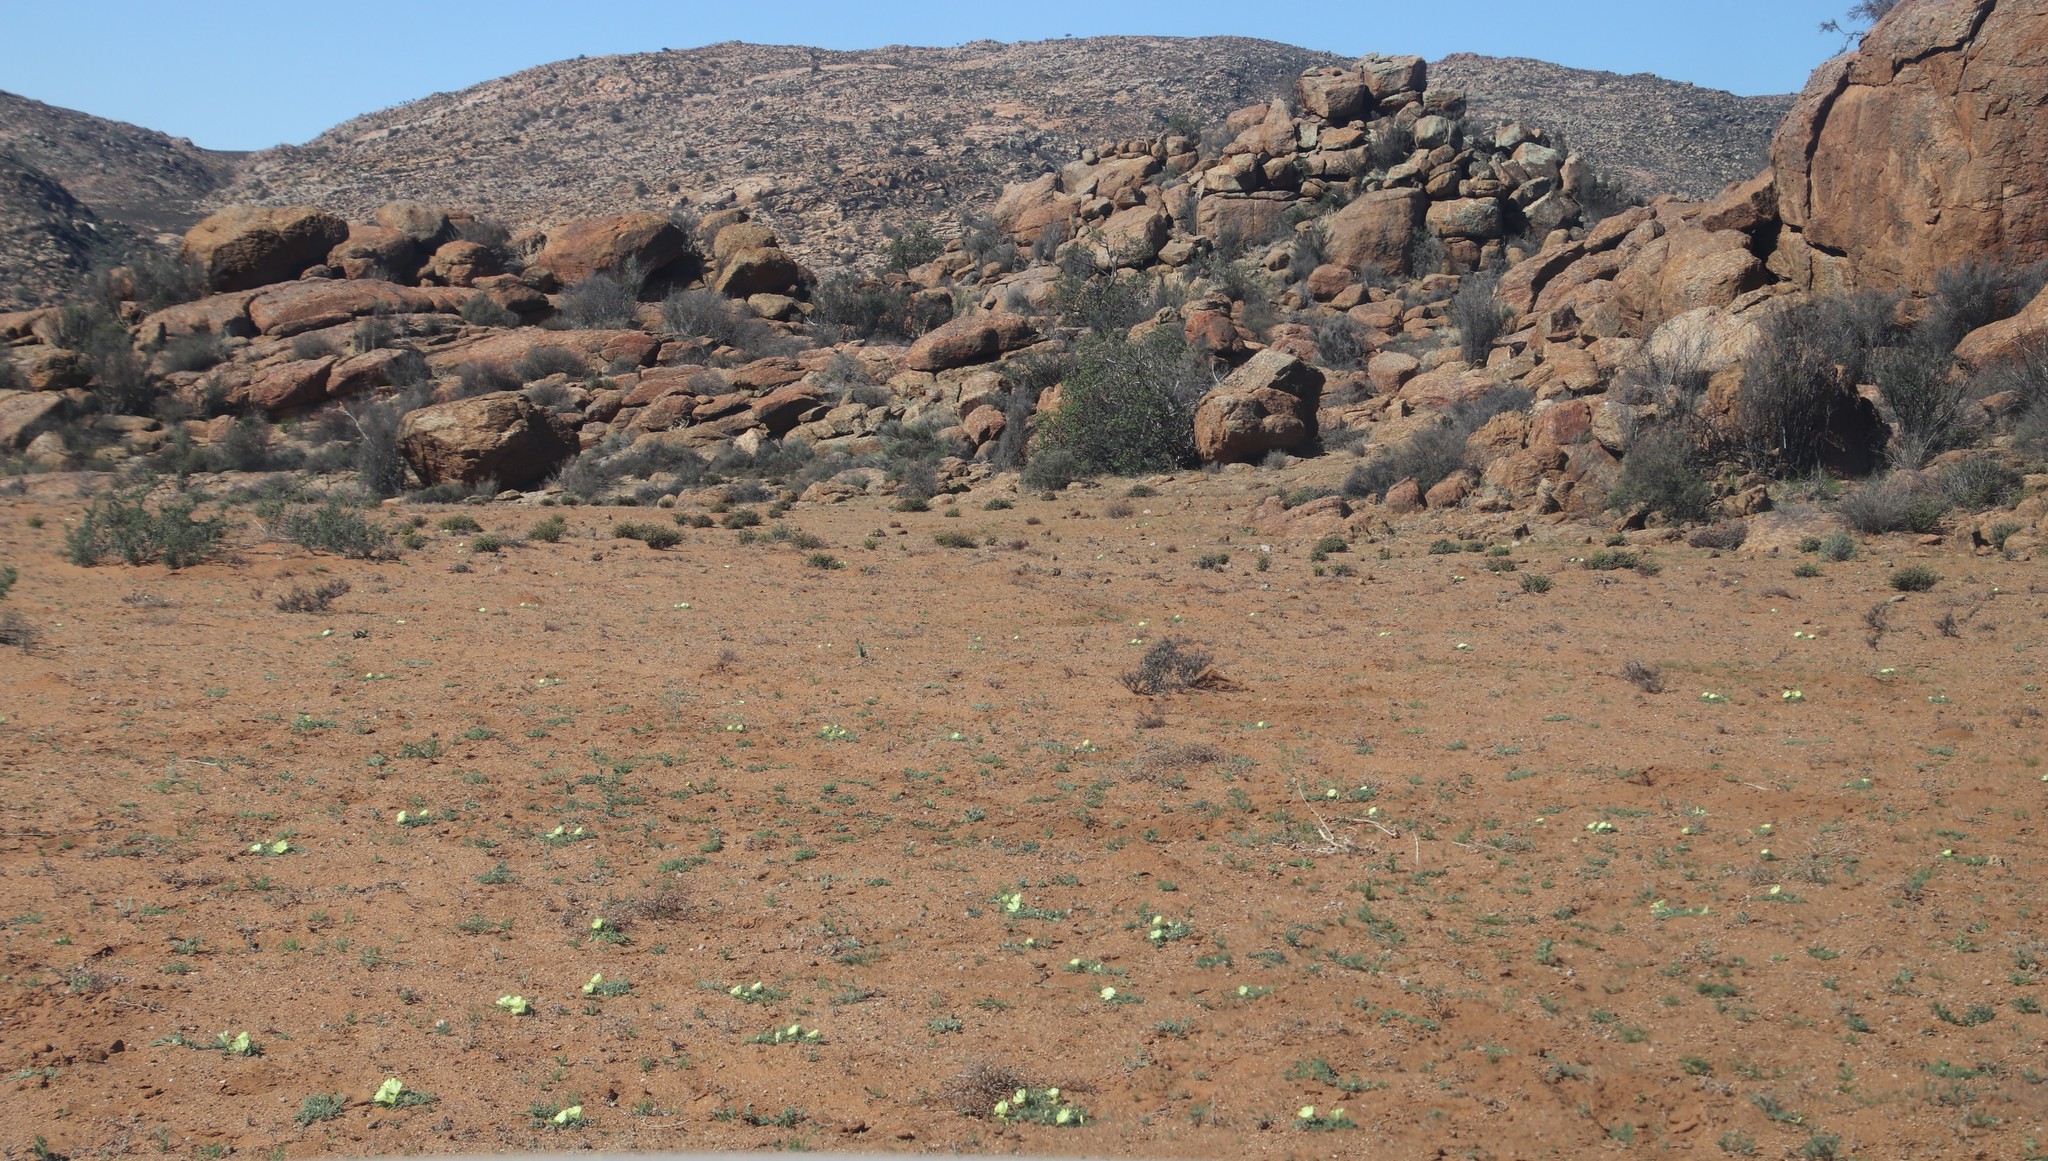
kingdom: Plantae
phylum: Tracheophyta
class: Magnoliopsida
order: Malvales
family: Neuradaceae
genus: Grielum
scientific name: Grielum humifusum
